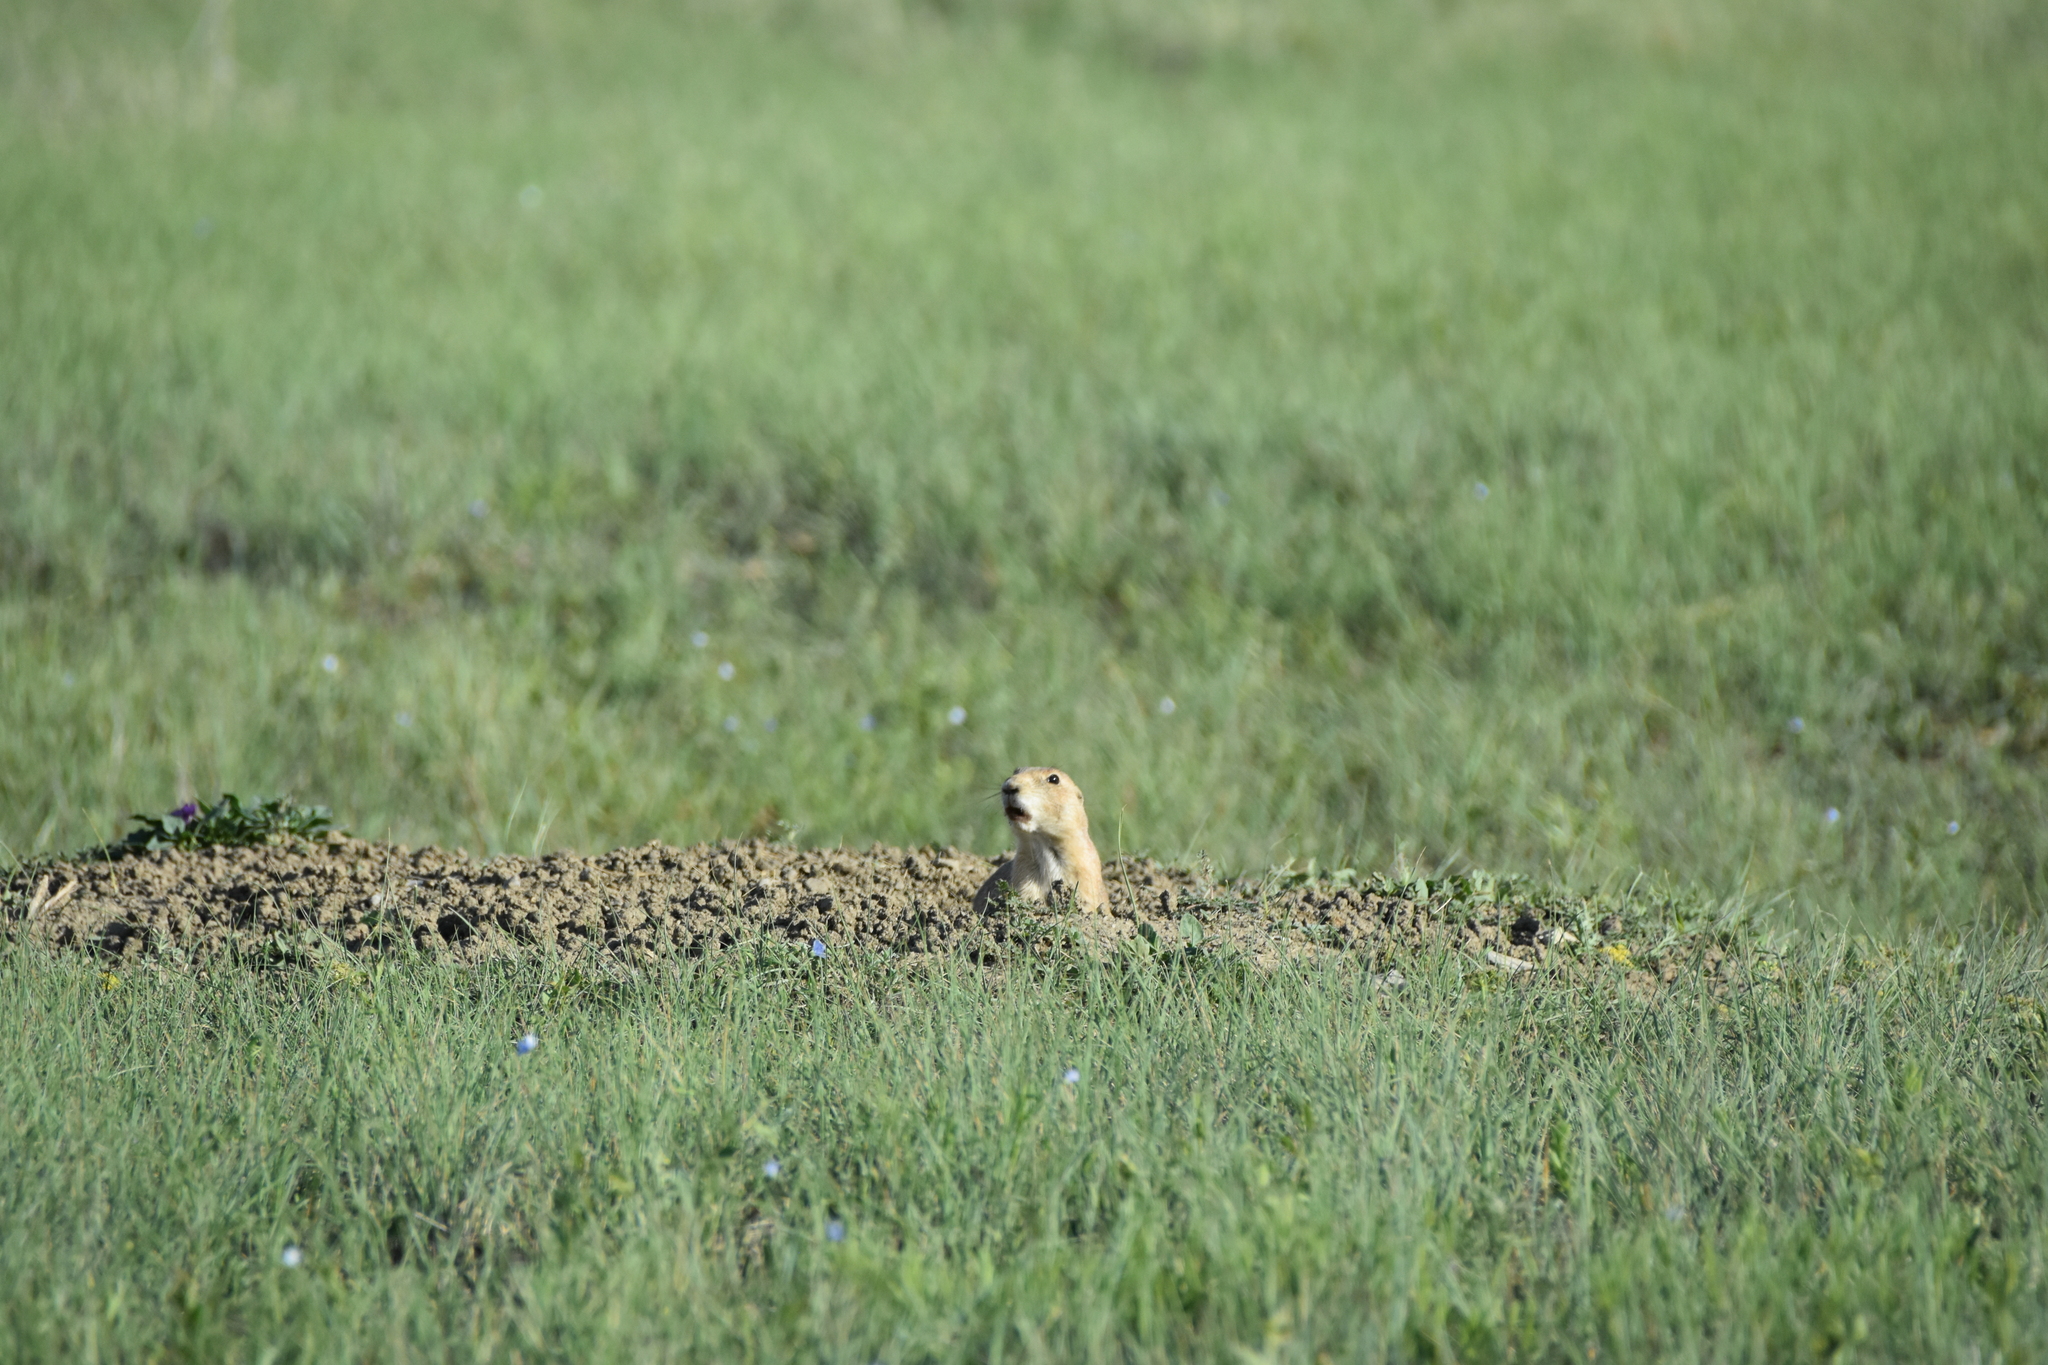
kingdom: Animalia
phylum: Chordata
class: Mammalia
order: Rodentia
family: Sciuridae
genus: Cynomys
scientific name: Cynomys ludovicianus
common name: Black-tailed prairie dog
